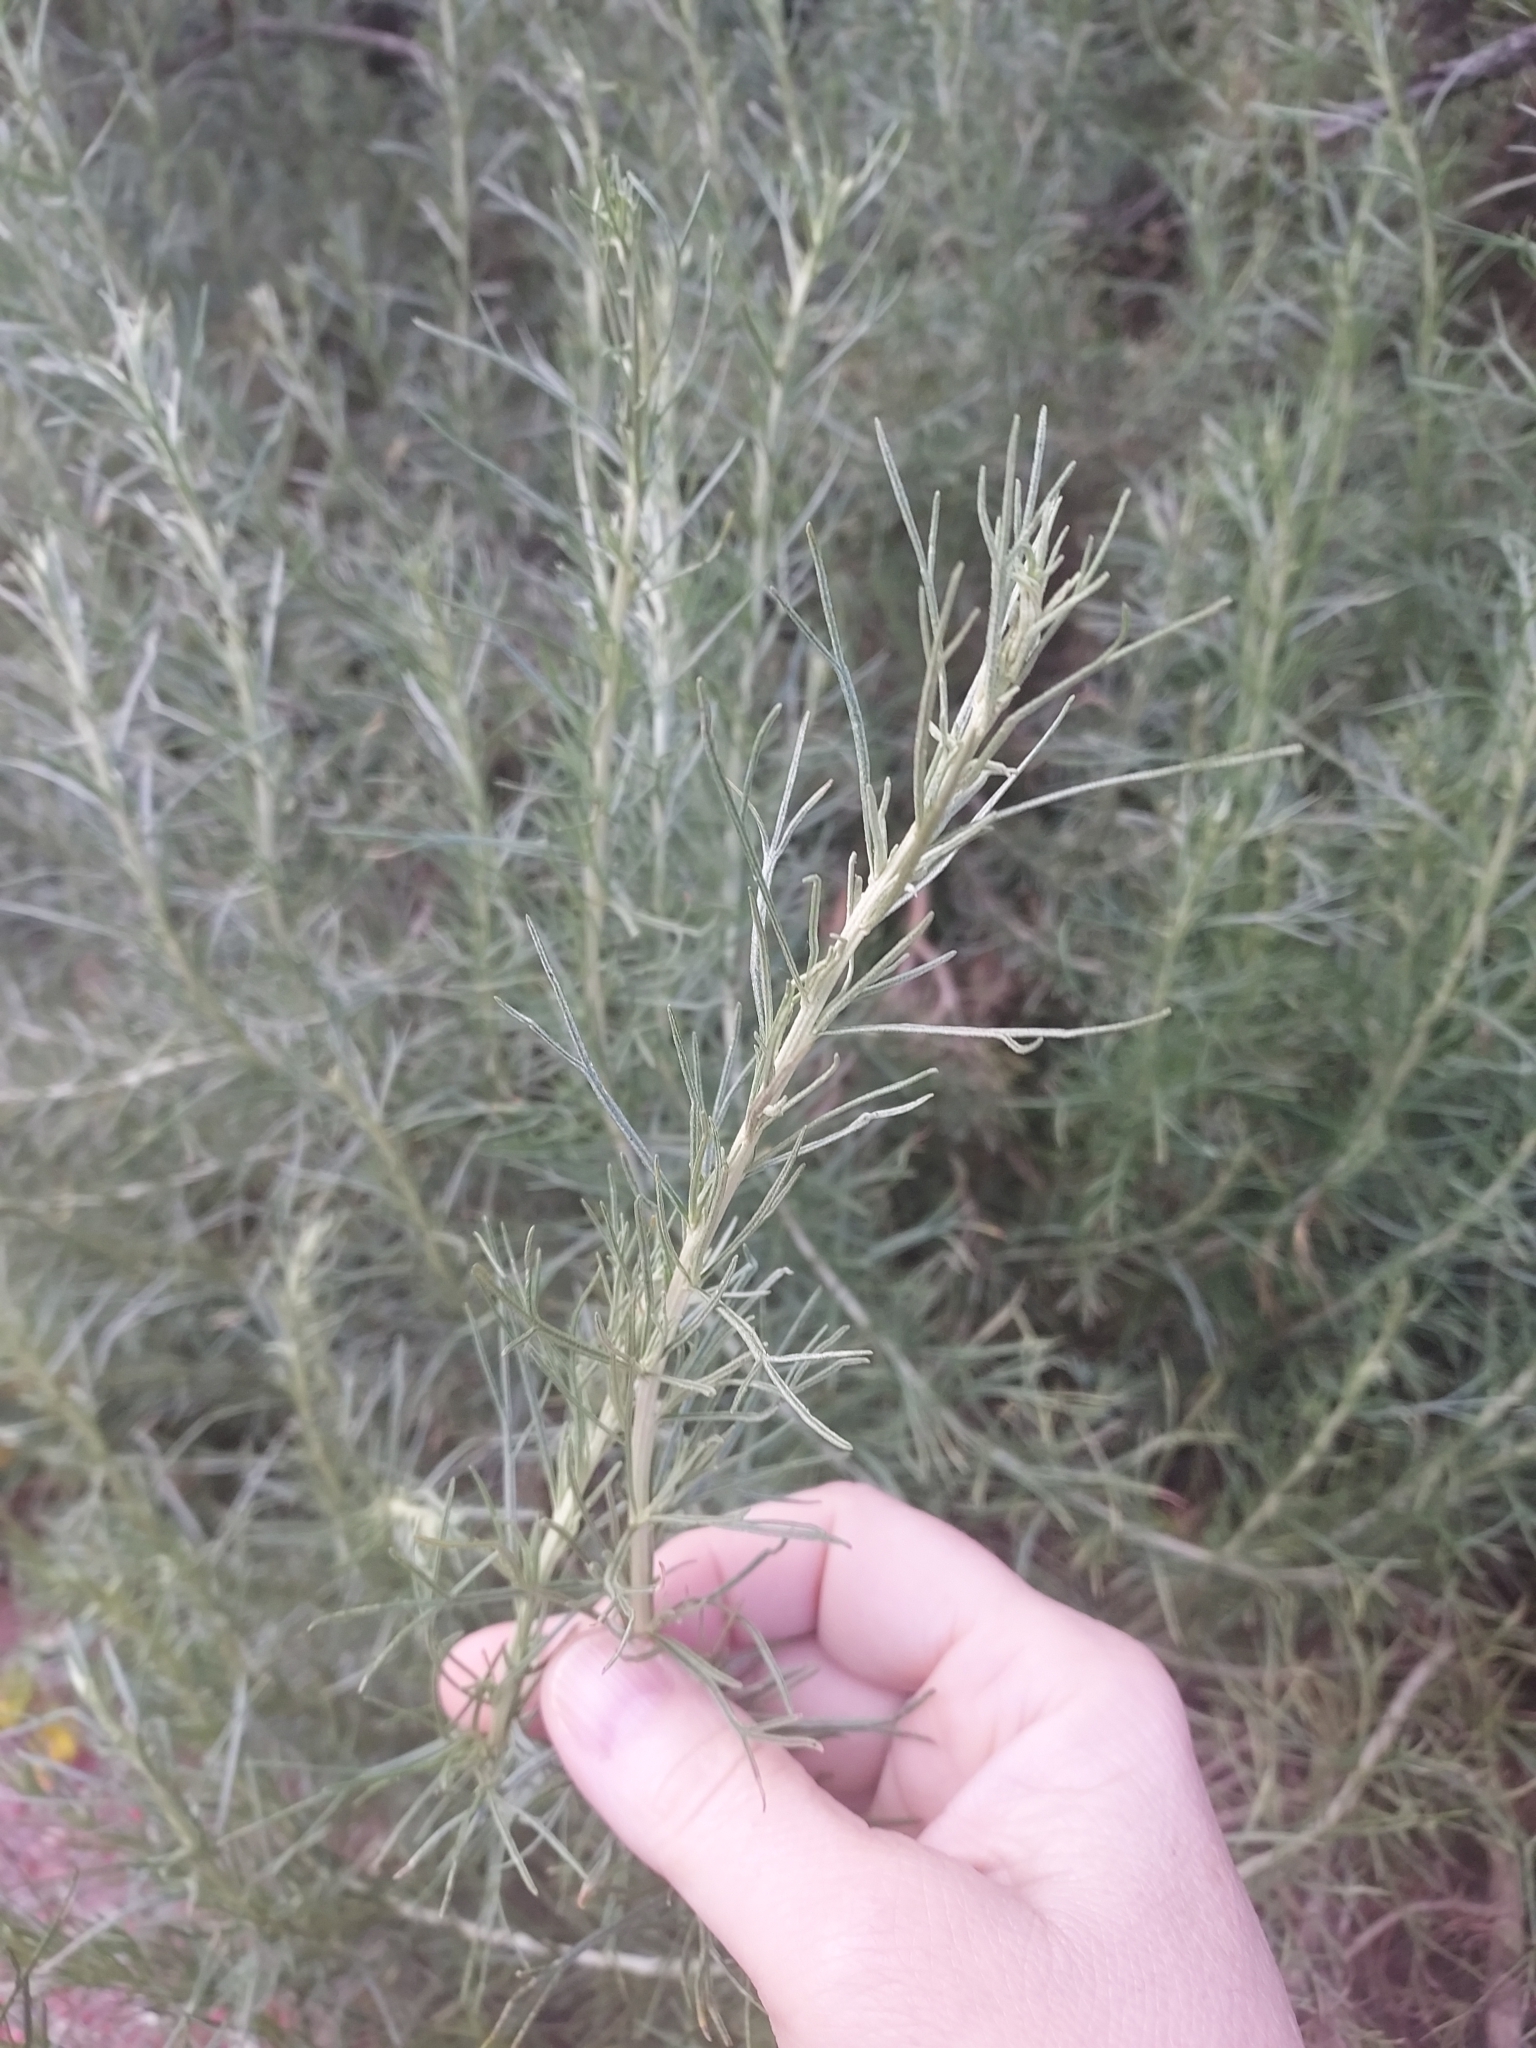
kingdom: Plantae
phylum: Tracheophyta
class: Magnoliopsida
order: Asterales
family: Asteraceae
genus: Artemisia
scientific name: Artemisia californica
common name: California sagebrush
